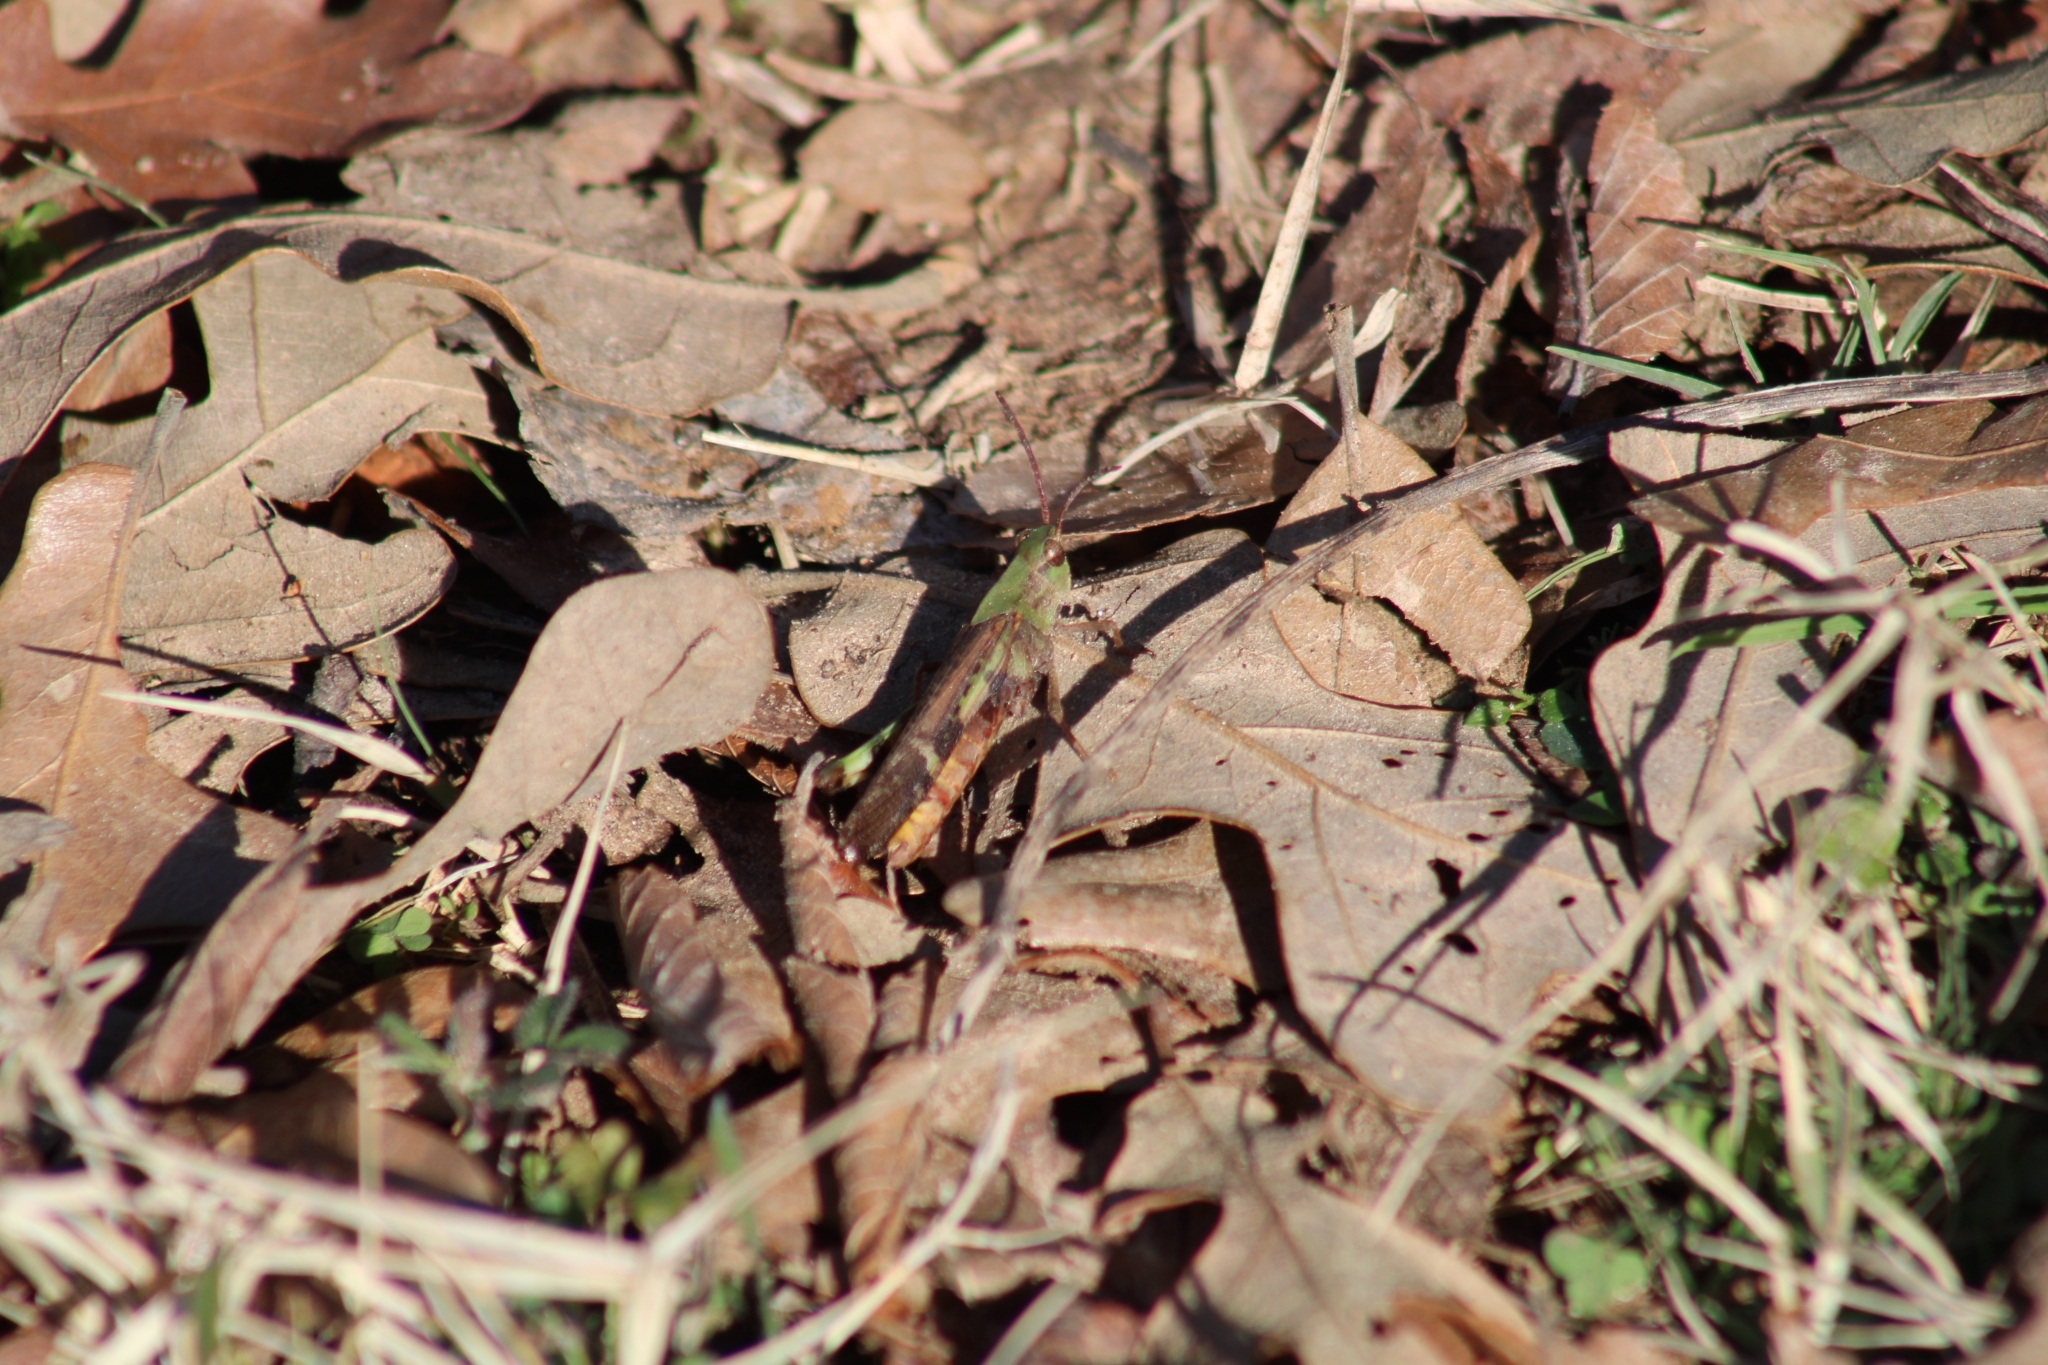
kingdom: Animalia
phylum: Arthropoda
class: Insecta
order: Orthoptera
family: Acrididae
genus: Chortophaga
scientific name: Chortophaga viridifasciata
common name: Green-striped grasshopper
